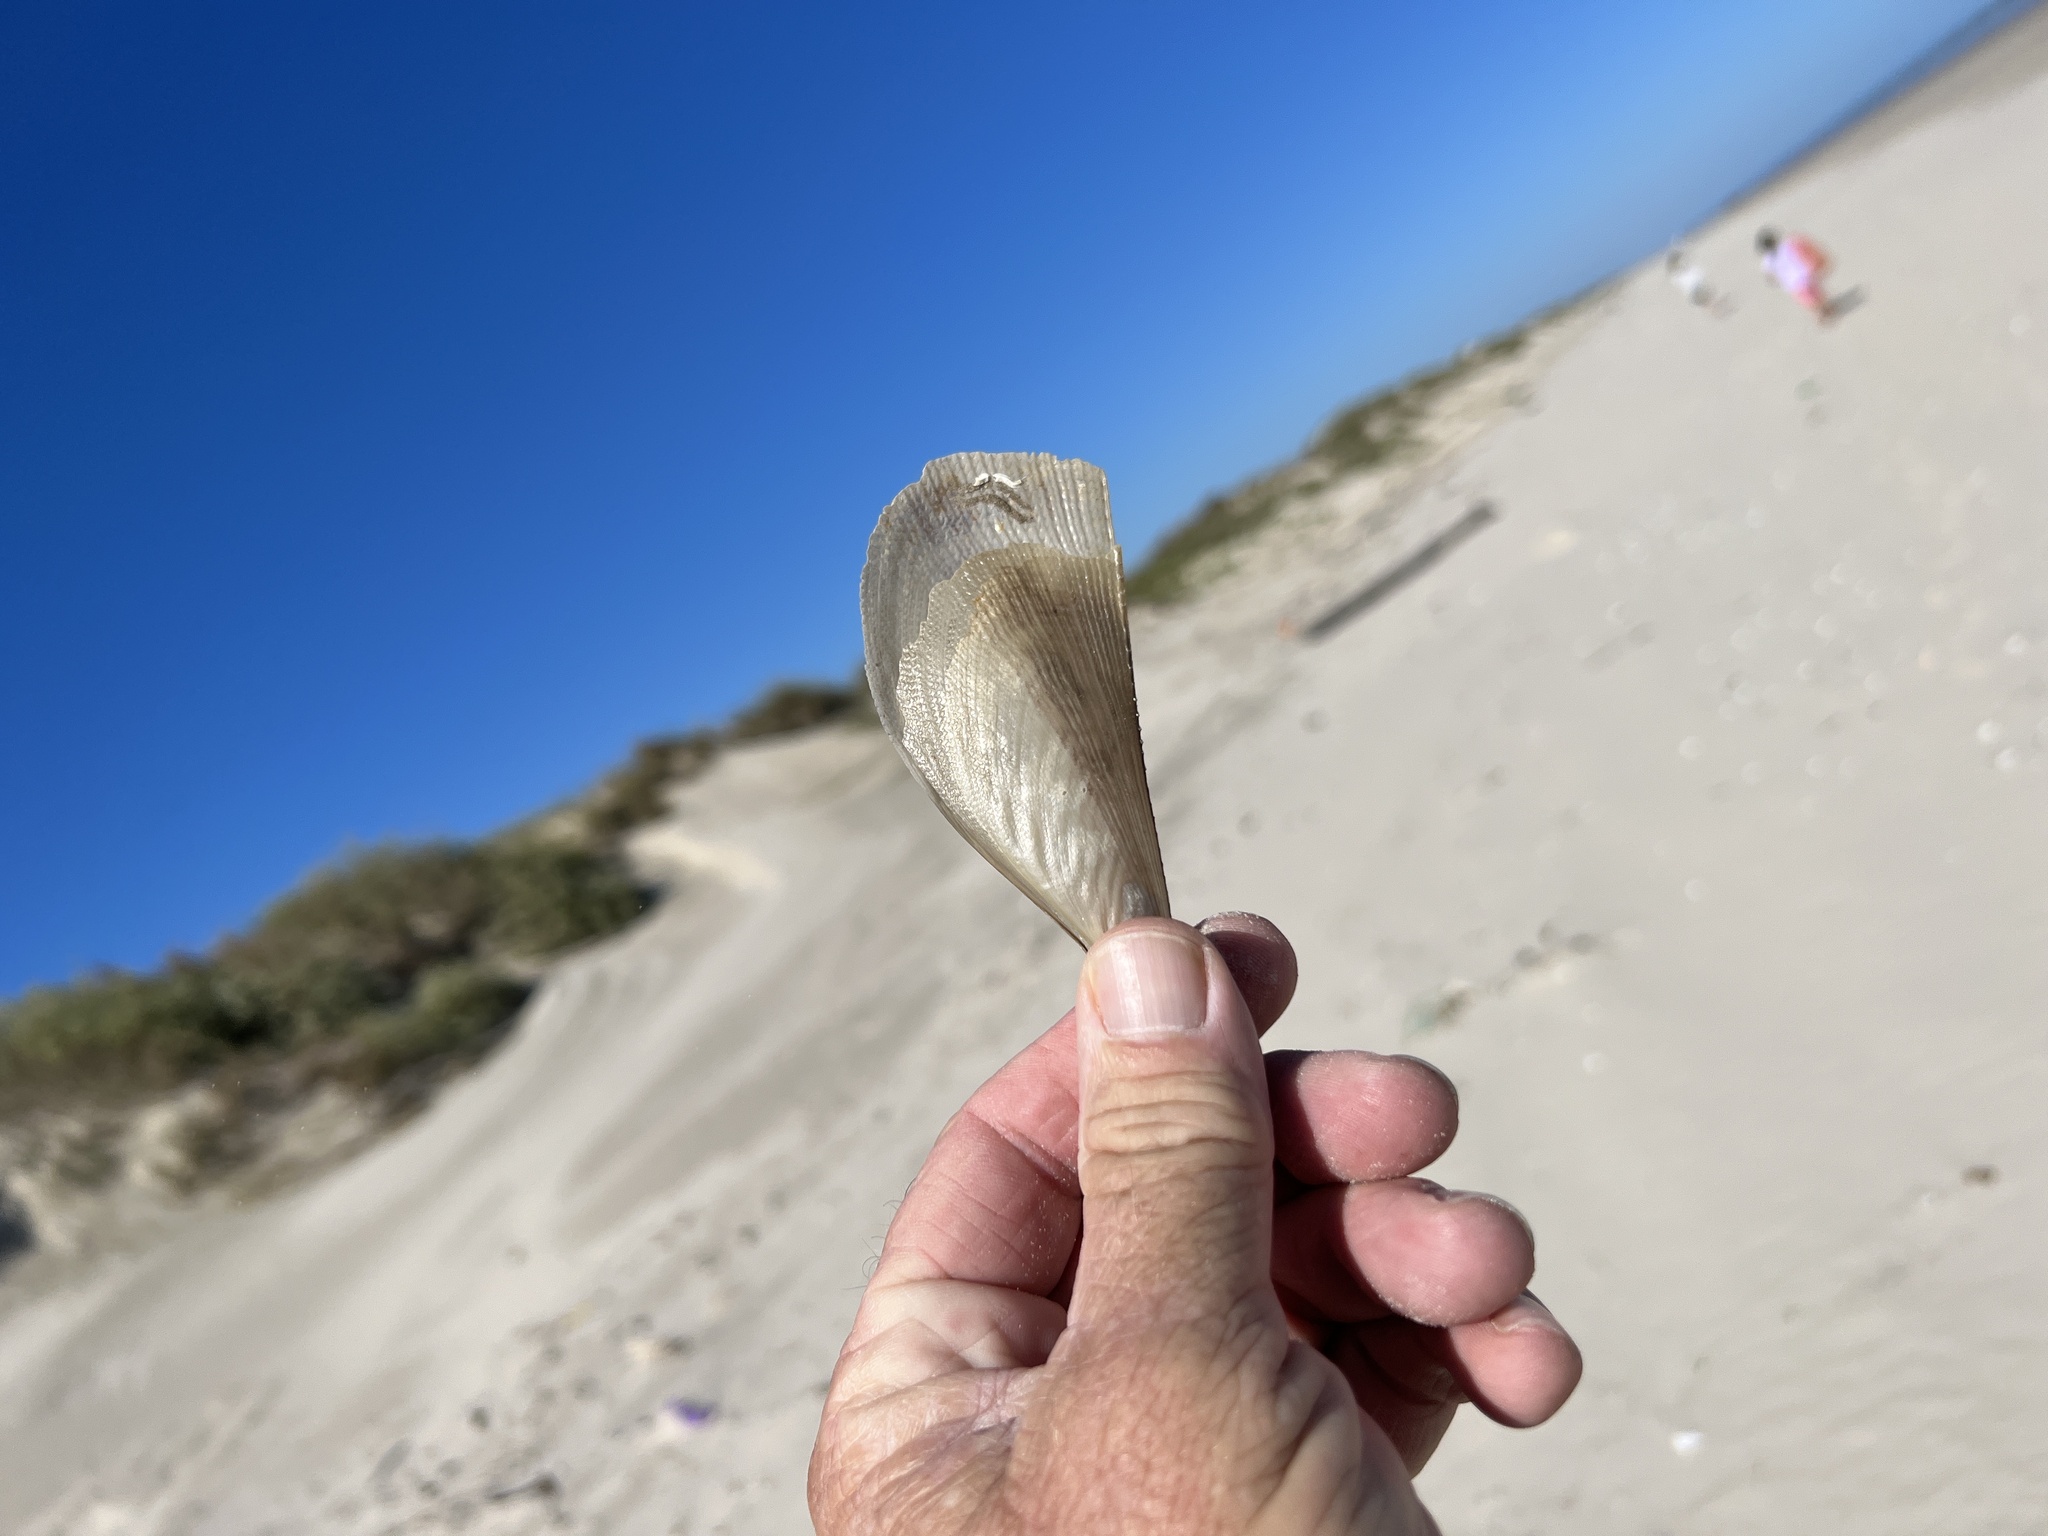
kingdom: Animalia
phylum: Mollusca
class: Bivalvia
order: Ostreida
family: Pinnidae
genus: Atrina
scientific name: Atrina serrata
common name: Saw-toothed penshell
